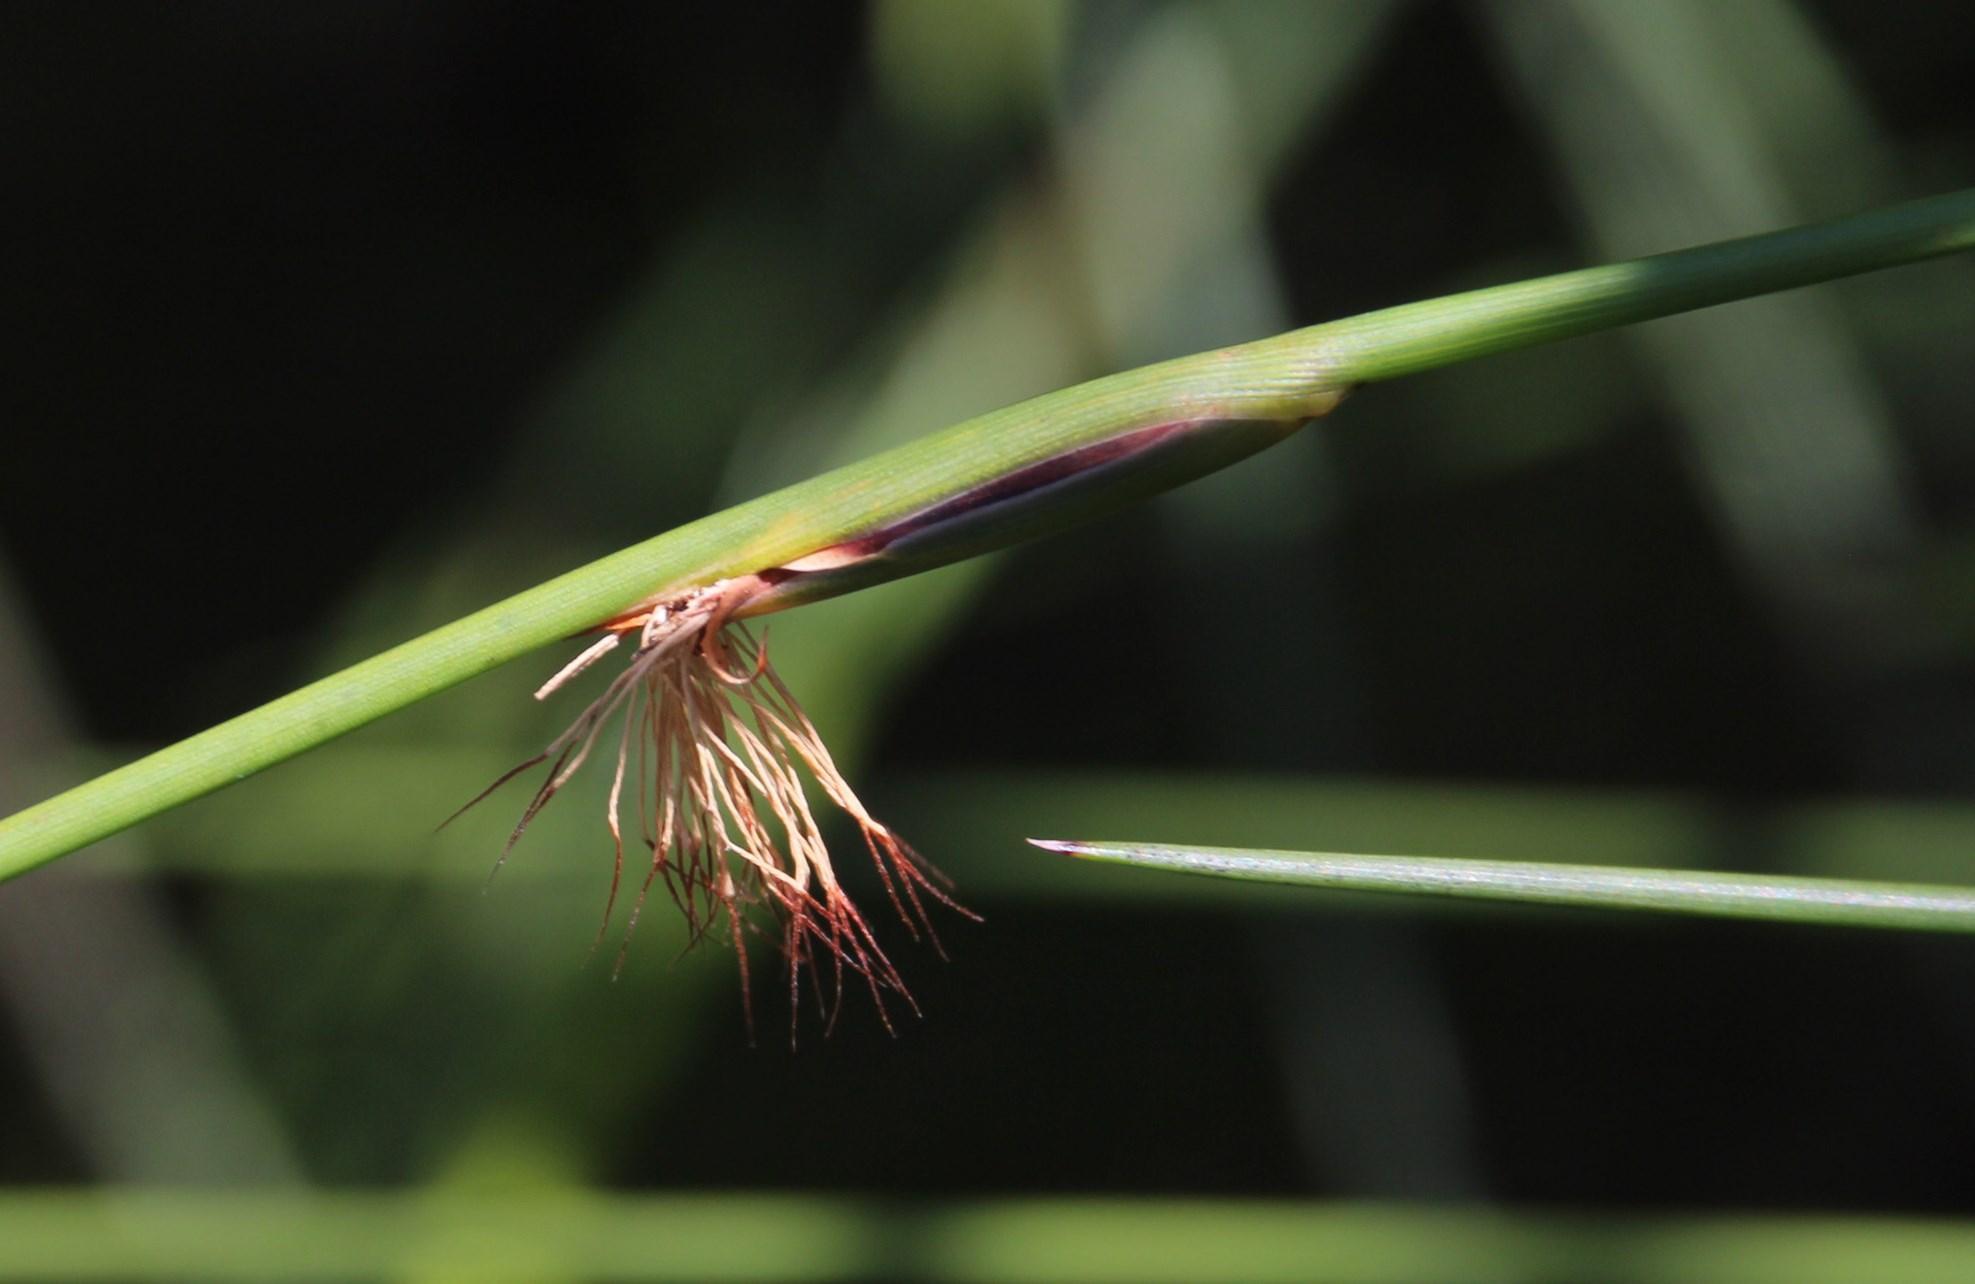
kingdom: Plantae
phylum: Tracheophyta
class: Liliopsida
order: Poales
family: Cyperaceae
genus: Chrysitrix
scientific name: Chrysitrix capensis
